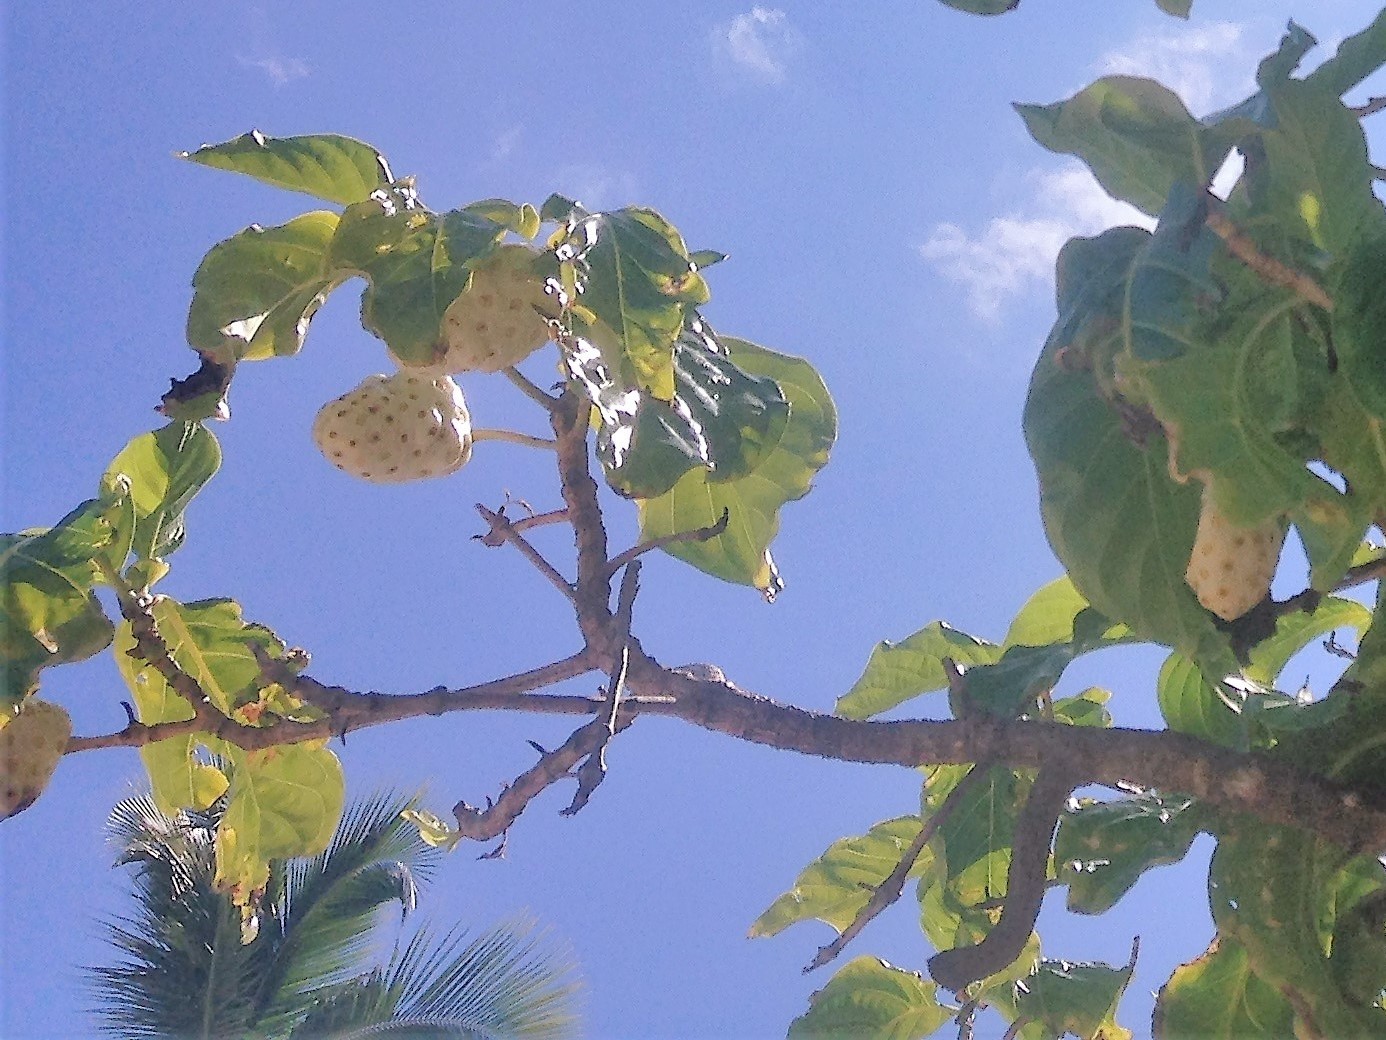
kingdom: Plantae
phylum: Tracheophyta
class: Magnoliopsida
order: Gentianales
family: Rubiaceae
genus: Morinda
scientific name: Morinda citrifolia
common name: Indian-mulberry
